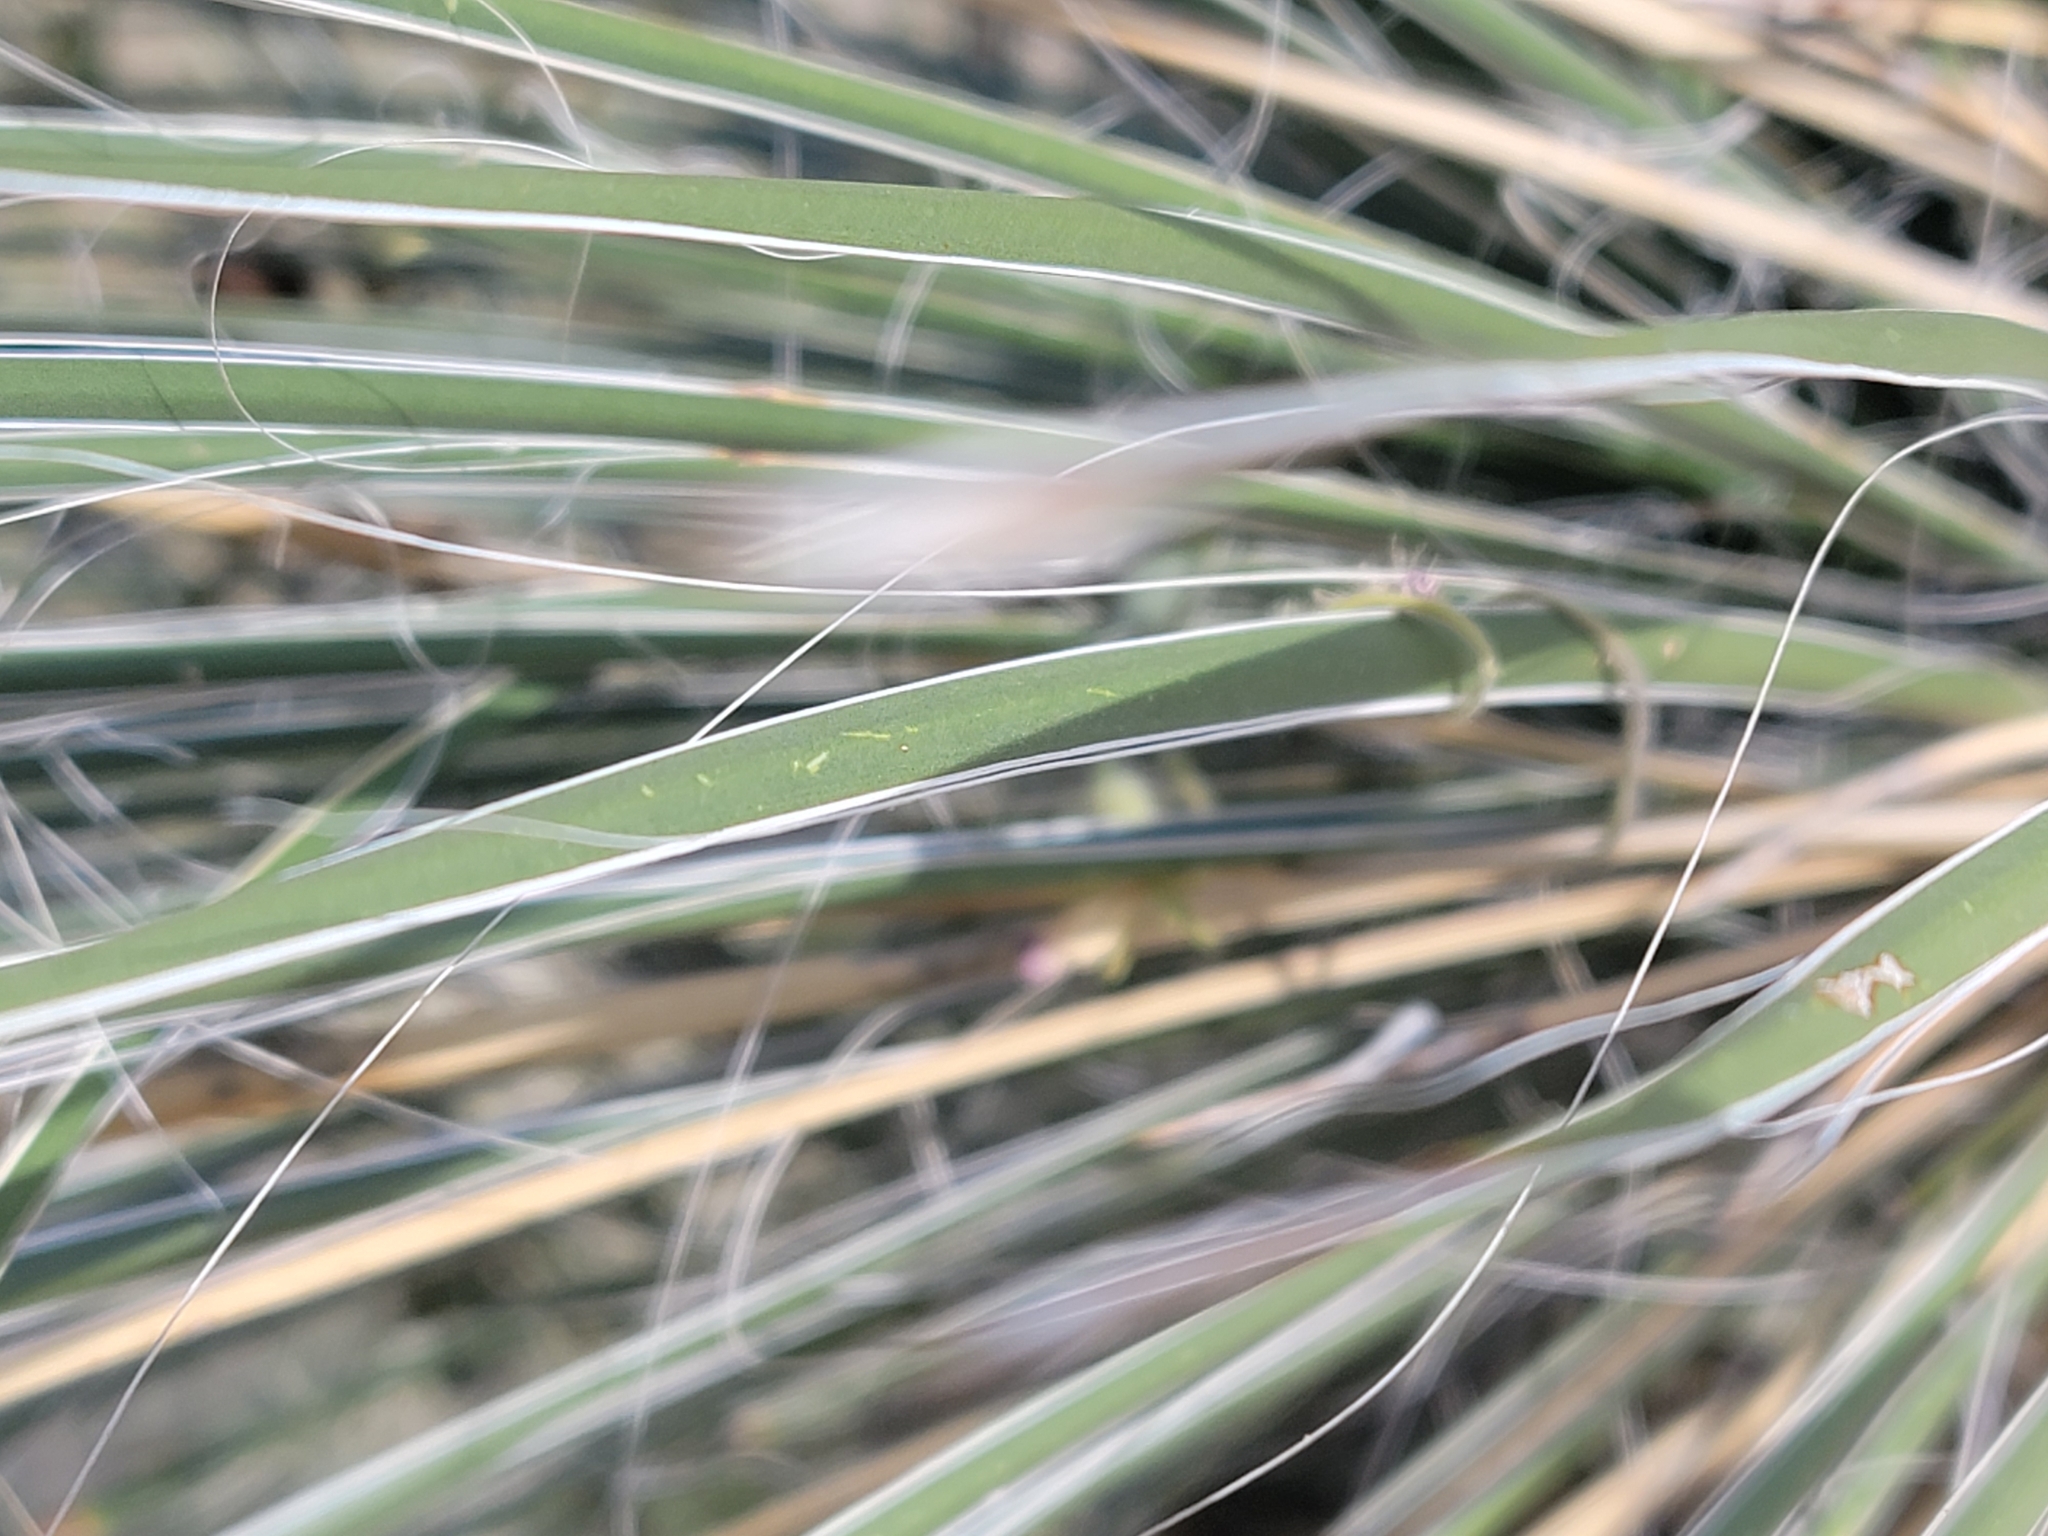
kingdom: Plantae
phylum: Tracheophyta
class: Liliopsida
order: Asparagales
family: Asparagaceae
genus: Yucca
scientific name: Yucca elata
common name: Palmella
